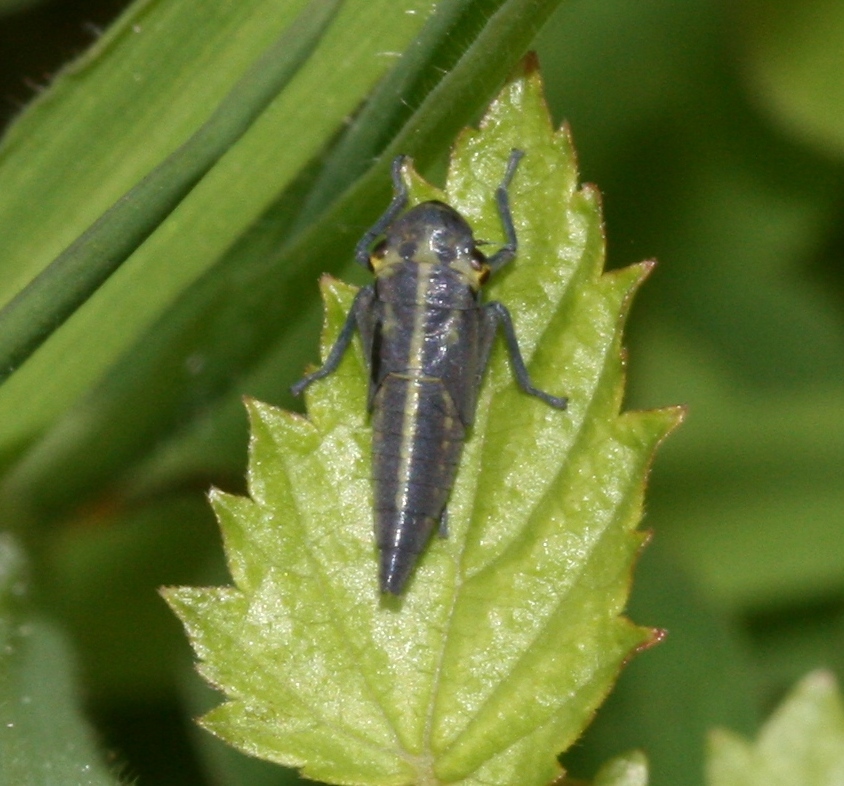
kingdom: Animalia
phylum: Arthropoda
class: Insecta
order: Hemiptera
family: Cicadellidae
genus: Cicadella
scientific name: Cicadella viridis
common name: Leafhopper
